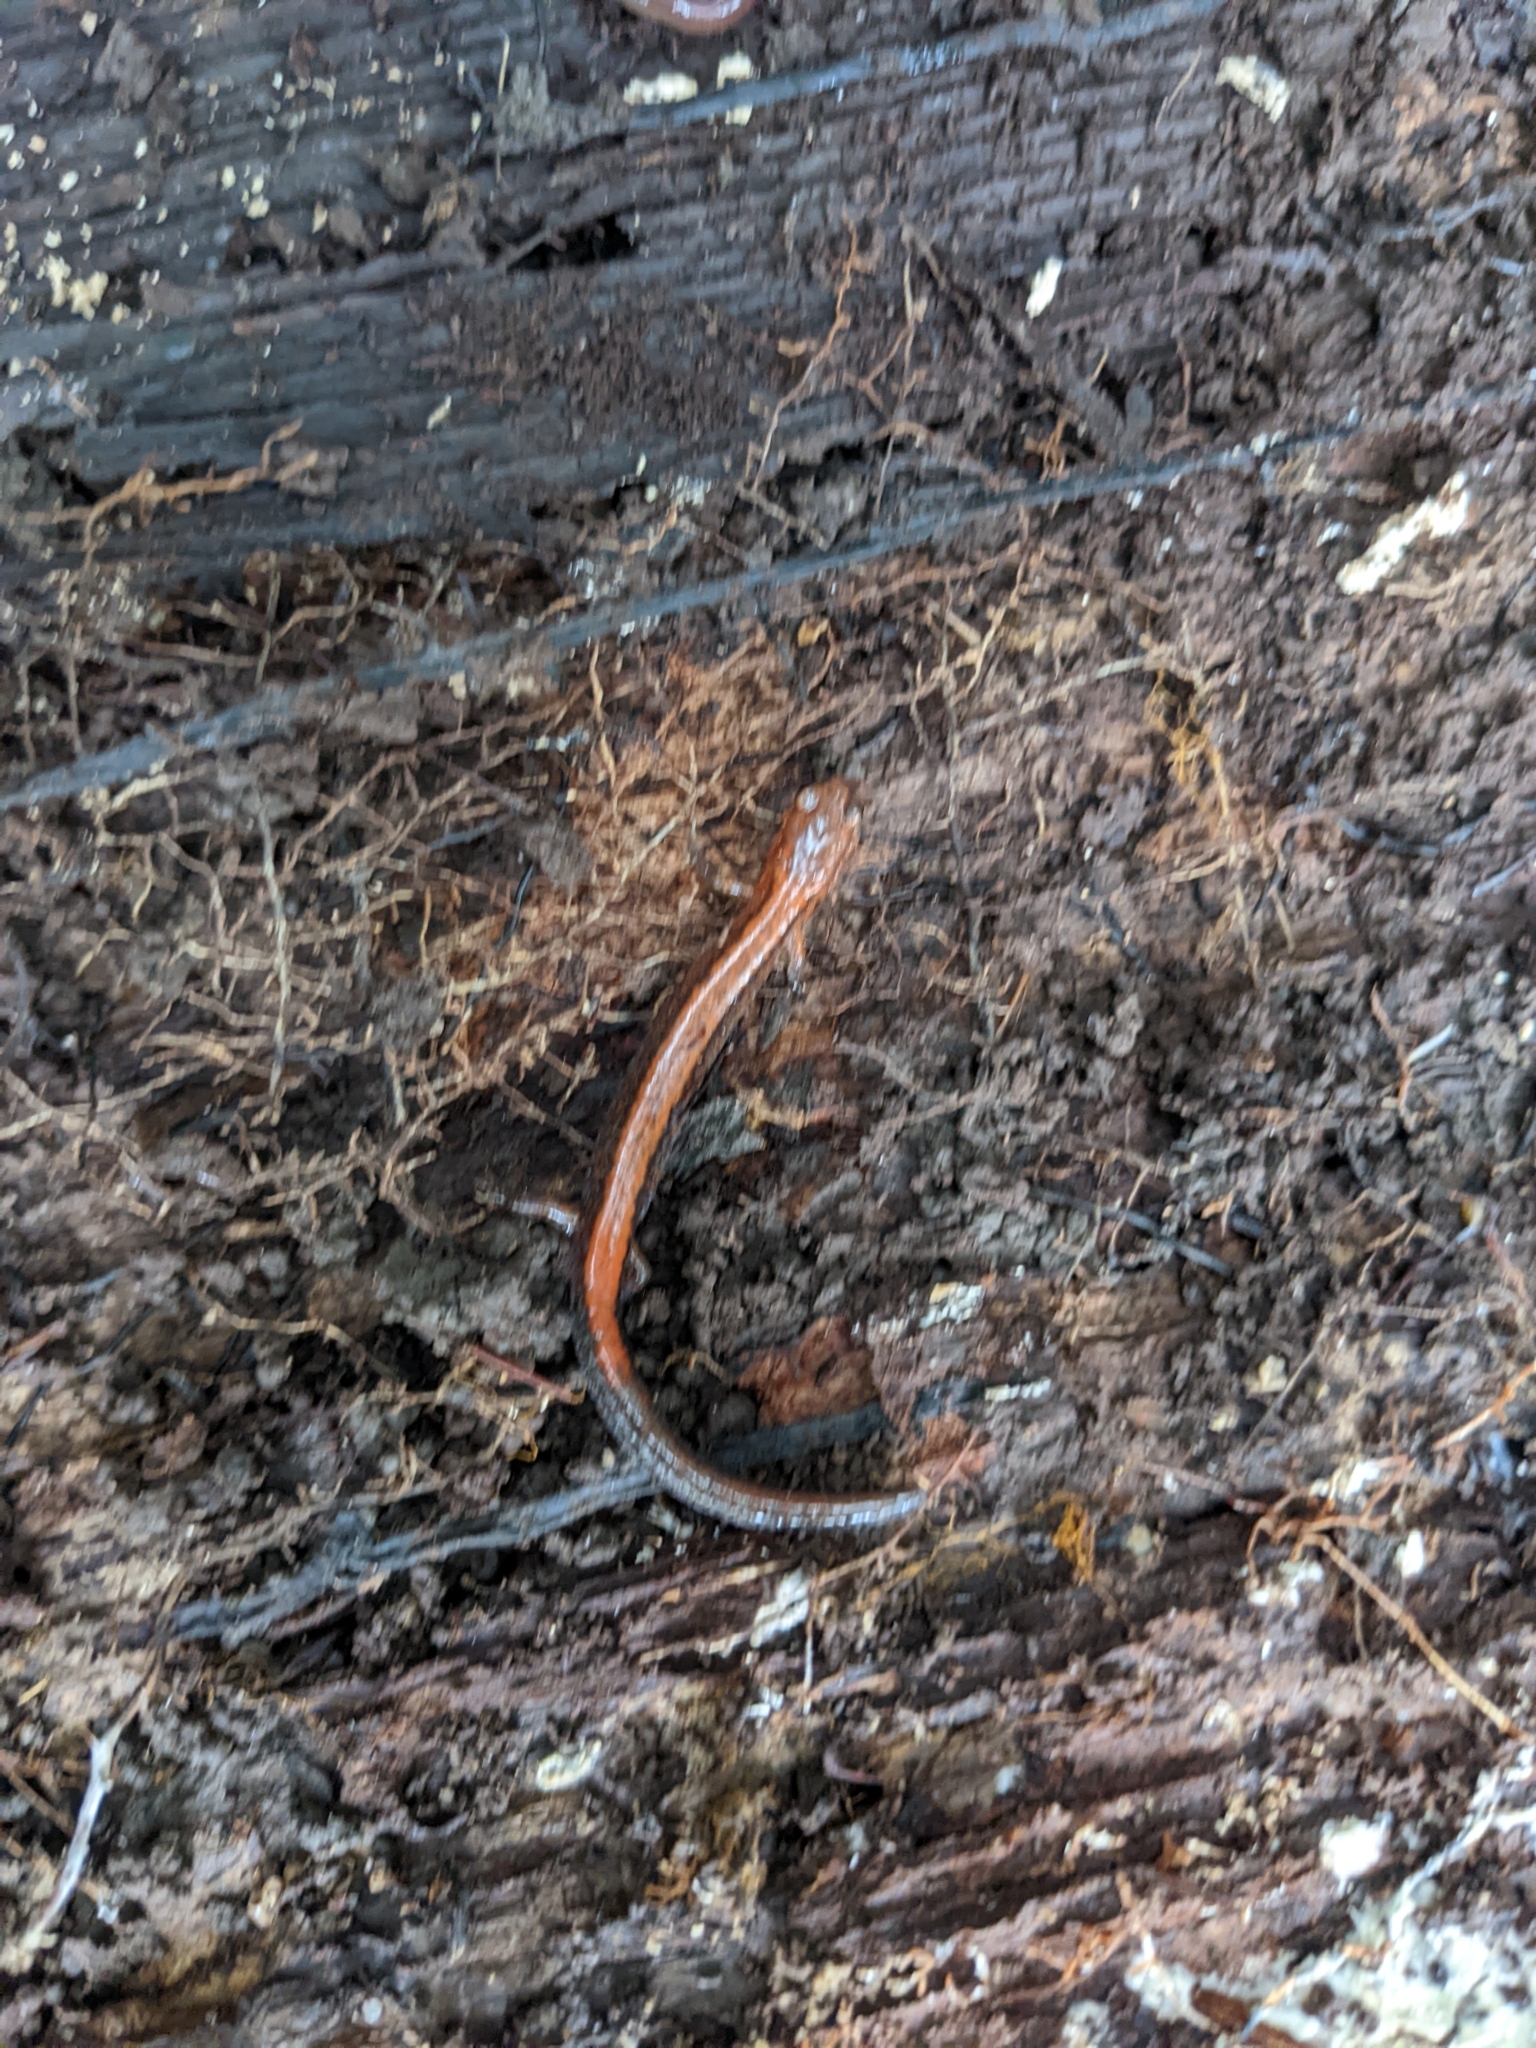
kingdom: Animalia
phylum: Chordata
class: Amphibia
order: Caudata
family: Plethodontidae
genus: Plethodon
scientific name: Plethodon cinereus
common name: Redback salamander
